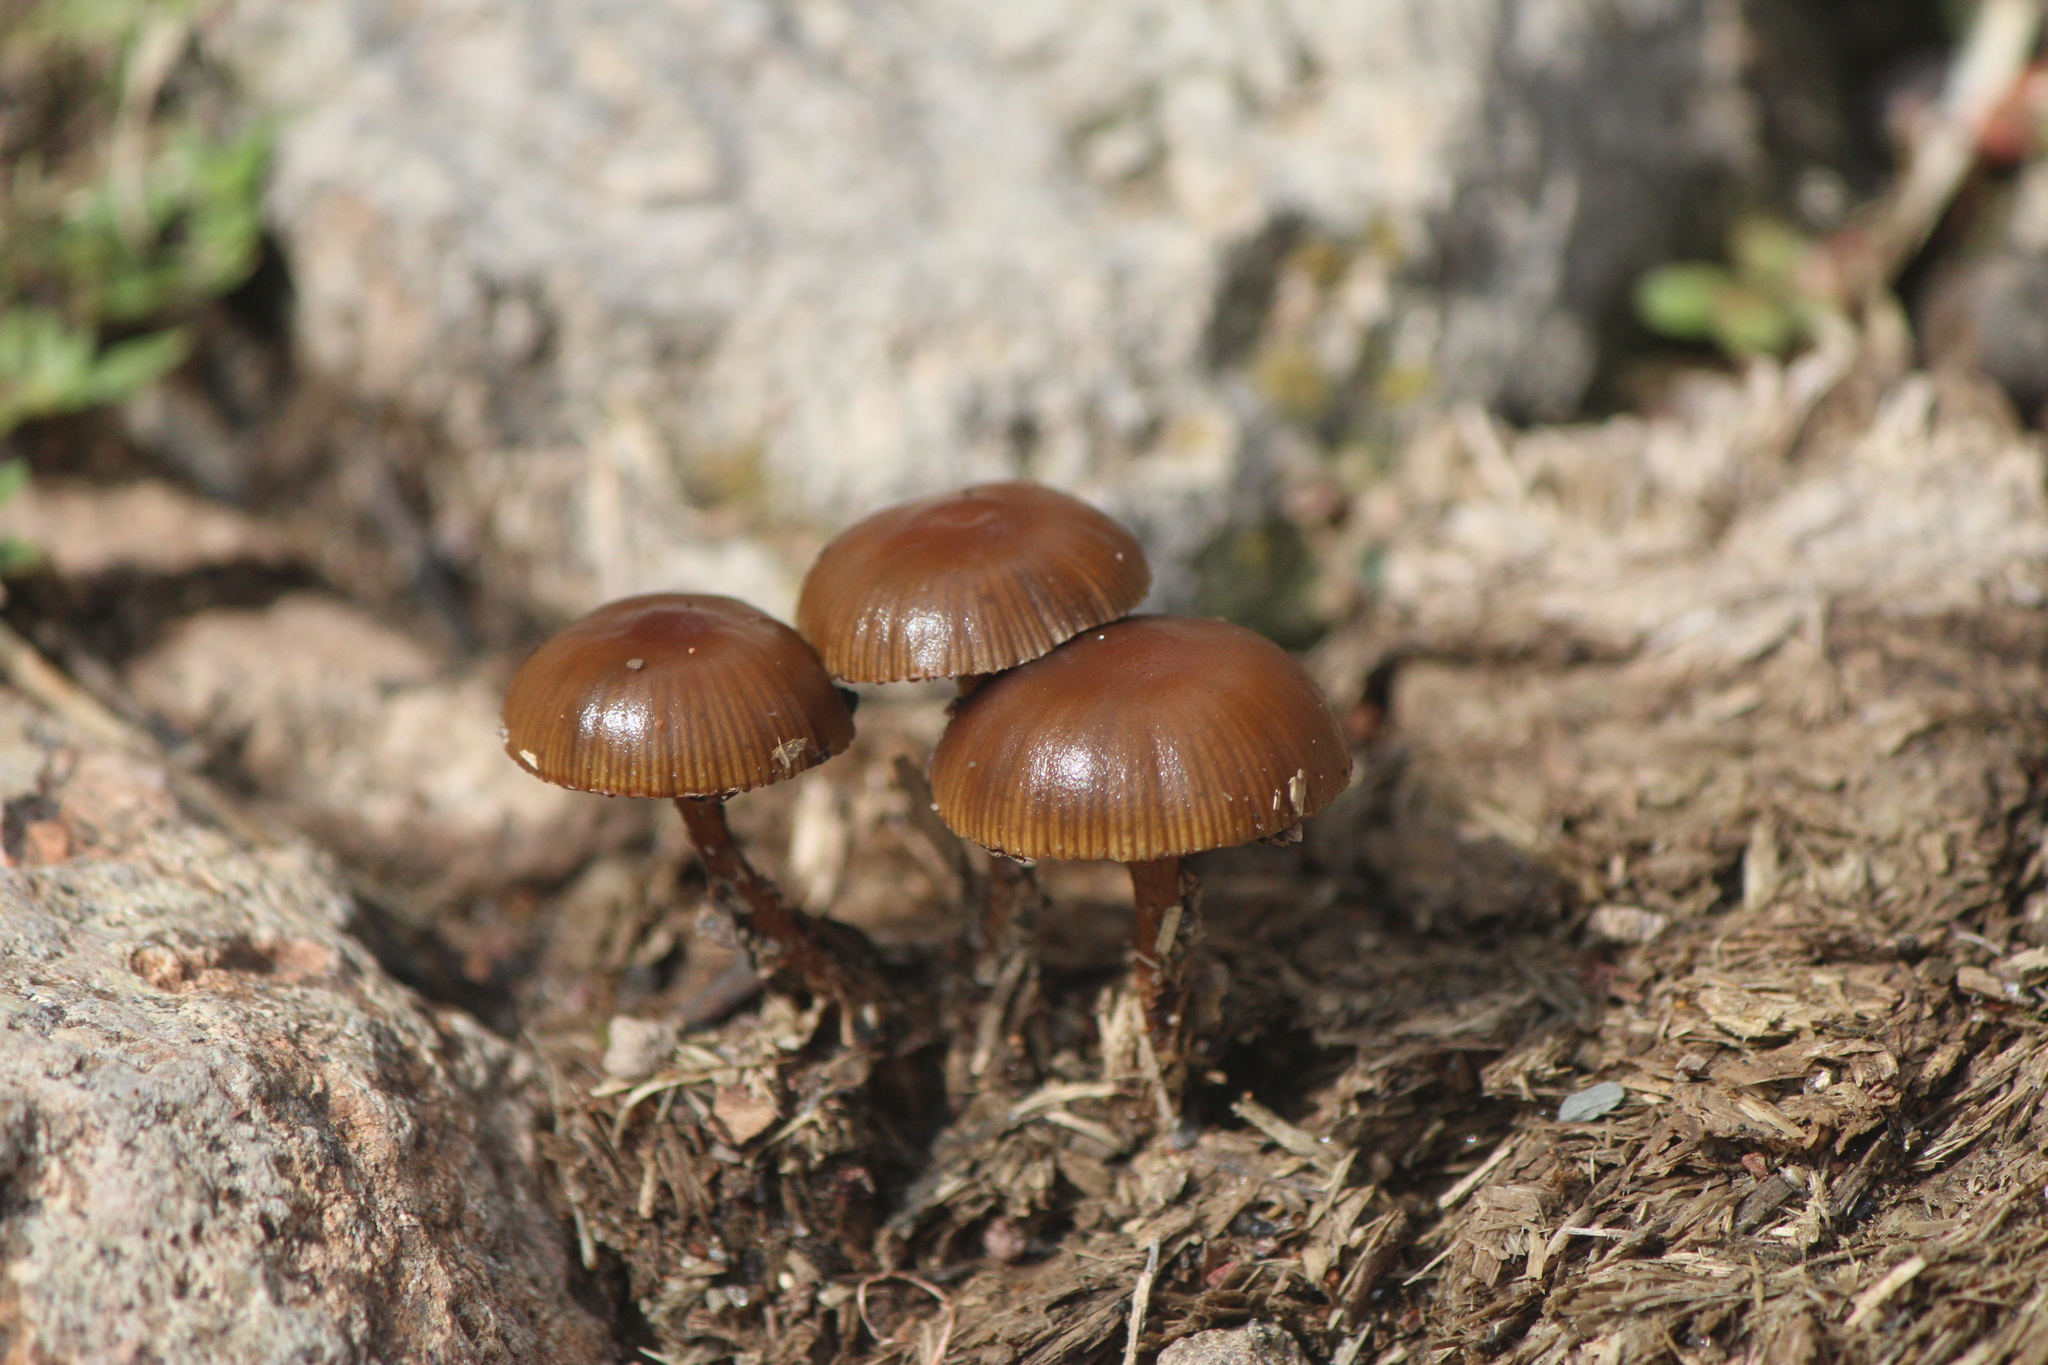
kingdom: Fungi
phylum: Basidiomycota
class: Agaricomycetes
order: Agaricales
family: Strophariaceae
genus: Deconica
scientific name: Deconica coprophila
